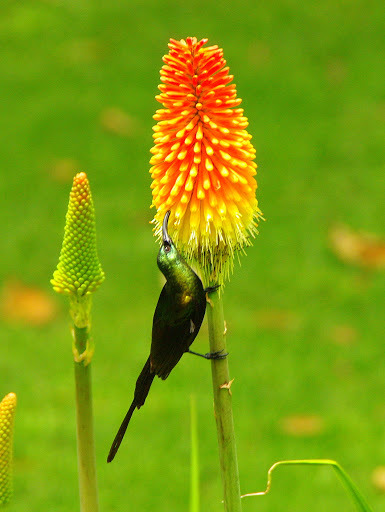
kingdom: Animalia
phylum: Chordata
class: Aves
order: Passeriformes
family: Nectariniidae
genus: Nectarinia
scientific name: Nectarinia kilimensis
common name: Bronzy sunbird
